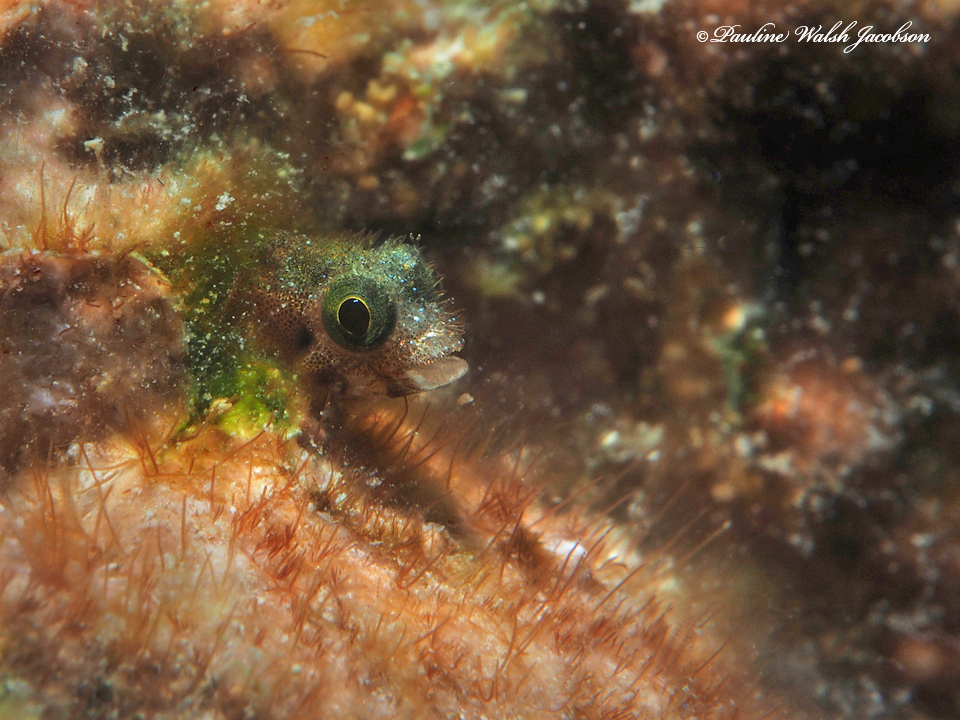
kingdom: Animalia
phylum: Chordata
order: Perciformes
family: Chaenopsidae
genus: Acanthemblemaria
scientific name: Acanthemblemaria spinosa
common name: Spinyhead blenny
